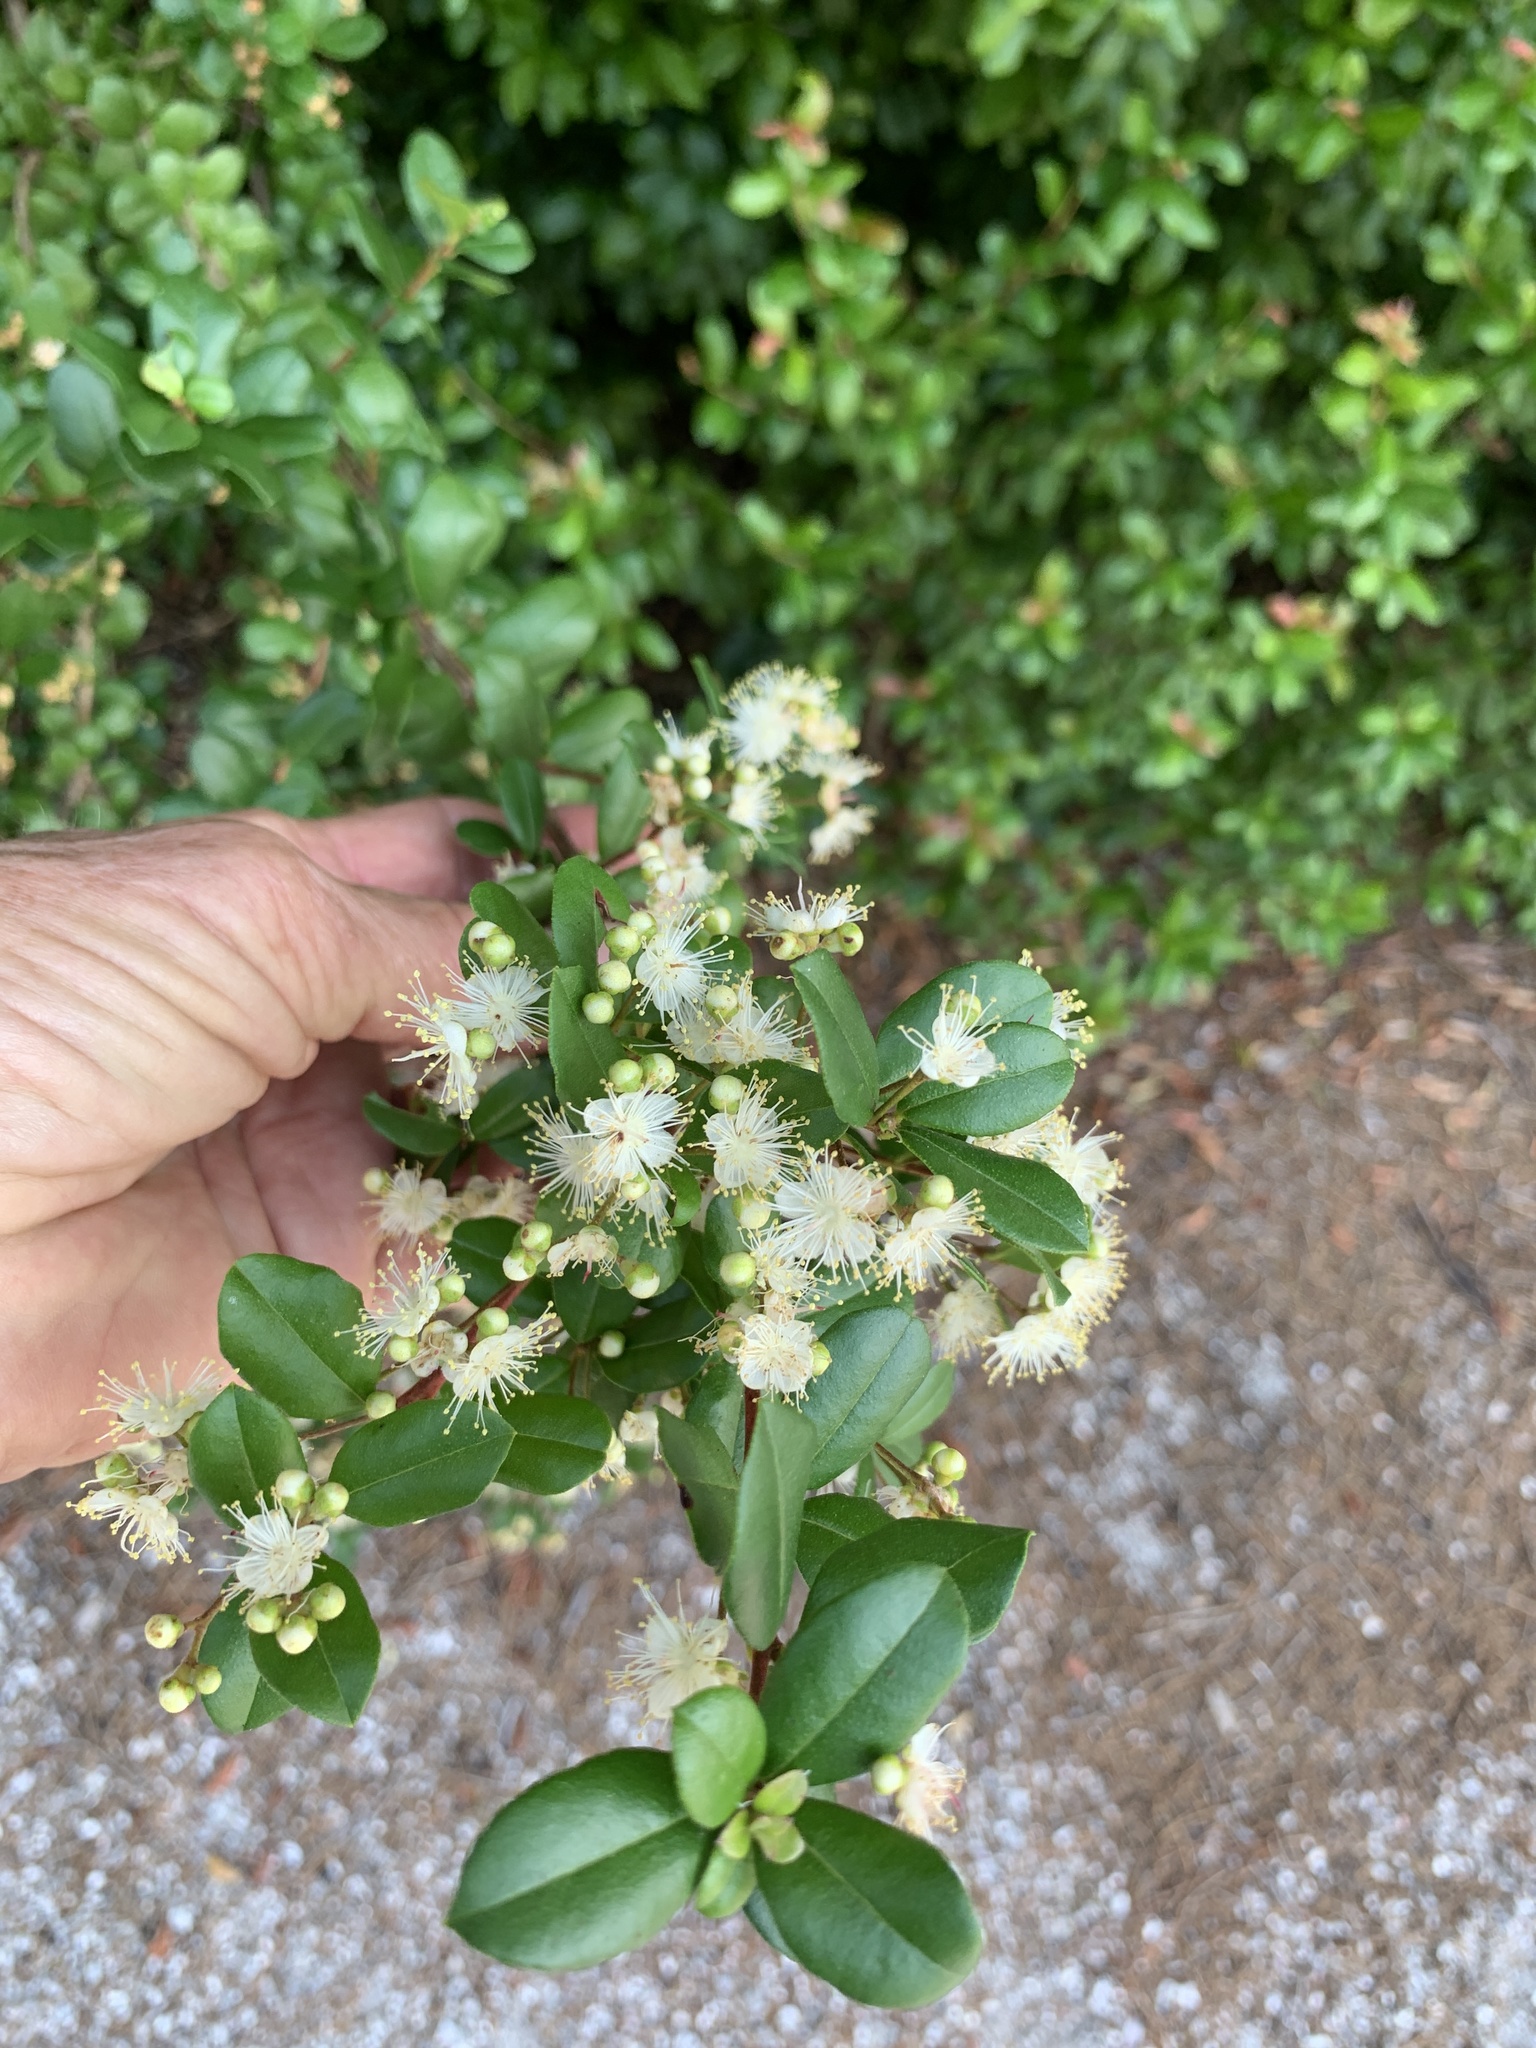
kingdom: Plantae
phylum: Tracheophyta
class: Magnoliopsida
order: Myrtales
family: Myrtaceae
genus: Myrcianthes
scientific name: Myrcianthes fragrans
